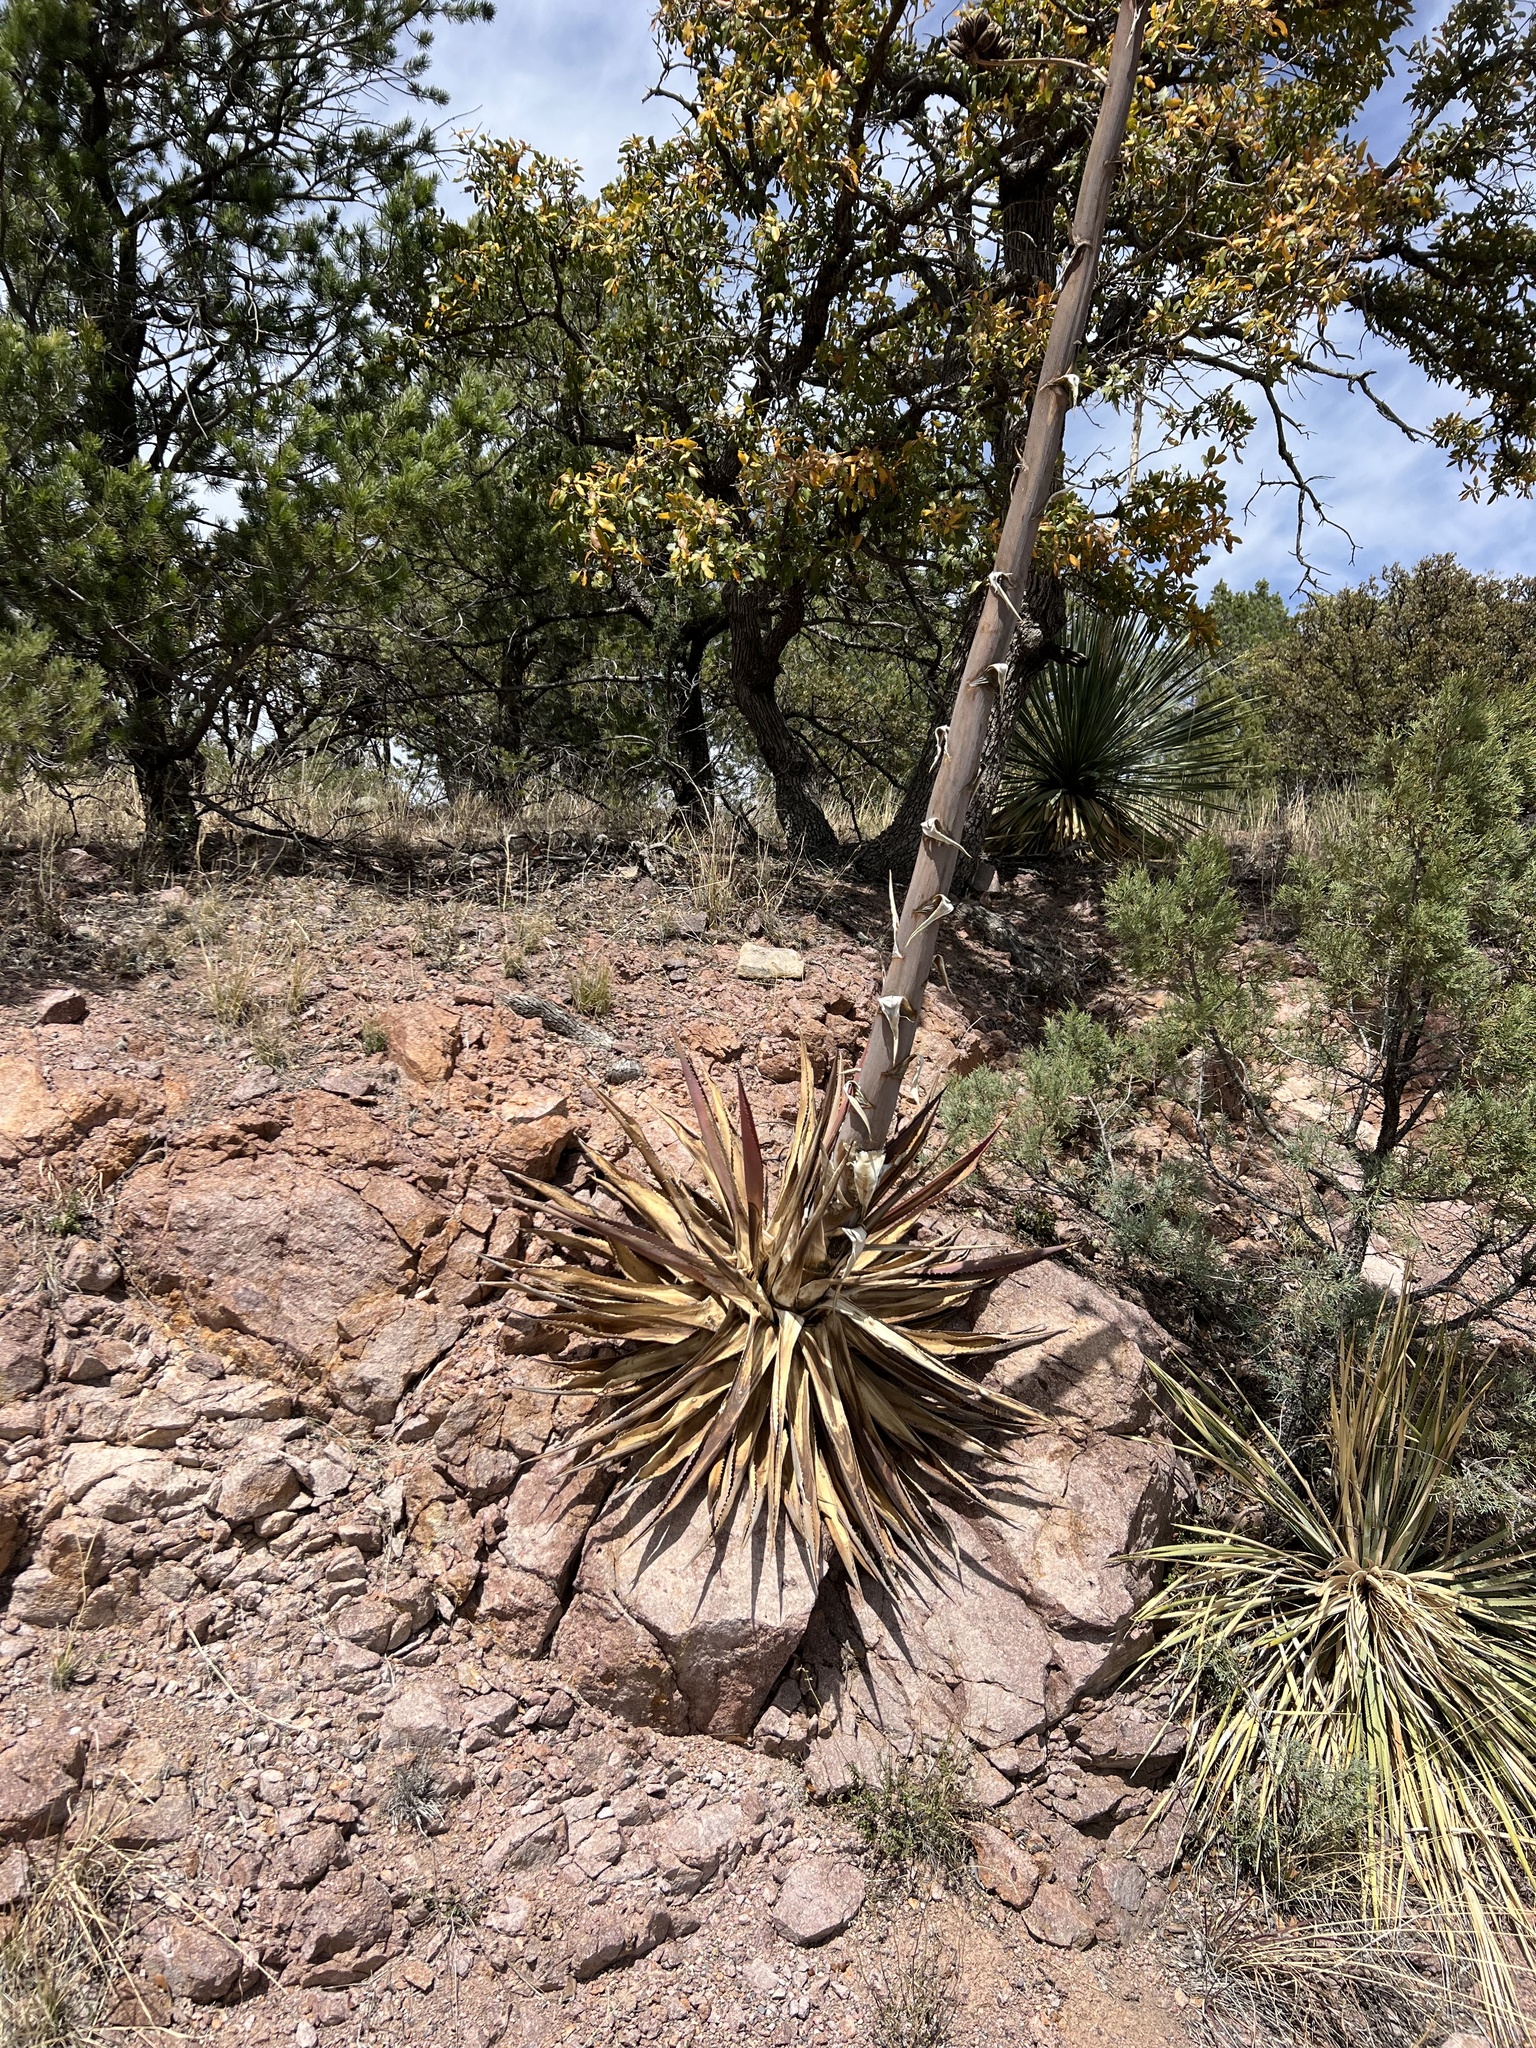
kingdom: Plantae
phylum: Tracheophyta
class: Liliopsida
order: Asparagales
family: Asparagaceae
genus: Agave
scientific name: Agave palmeri
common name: Palmer agave
